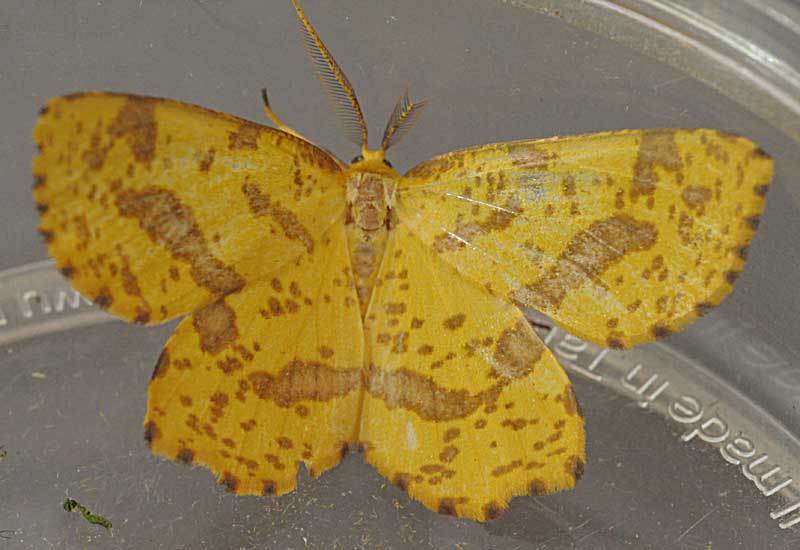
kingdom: Animalia
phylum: Arthropoda
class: Insecta
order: Lepidoptera
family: Geometridae
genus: Xanthotype
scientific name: Xanthotype
